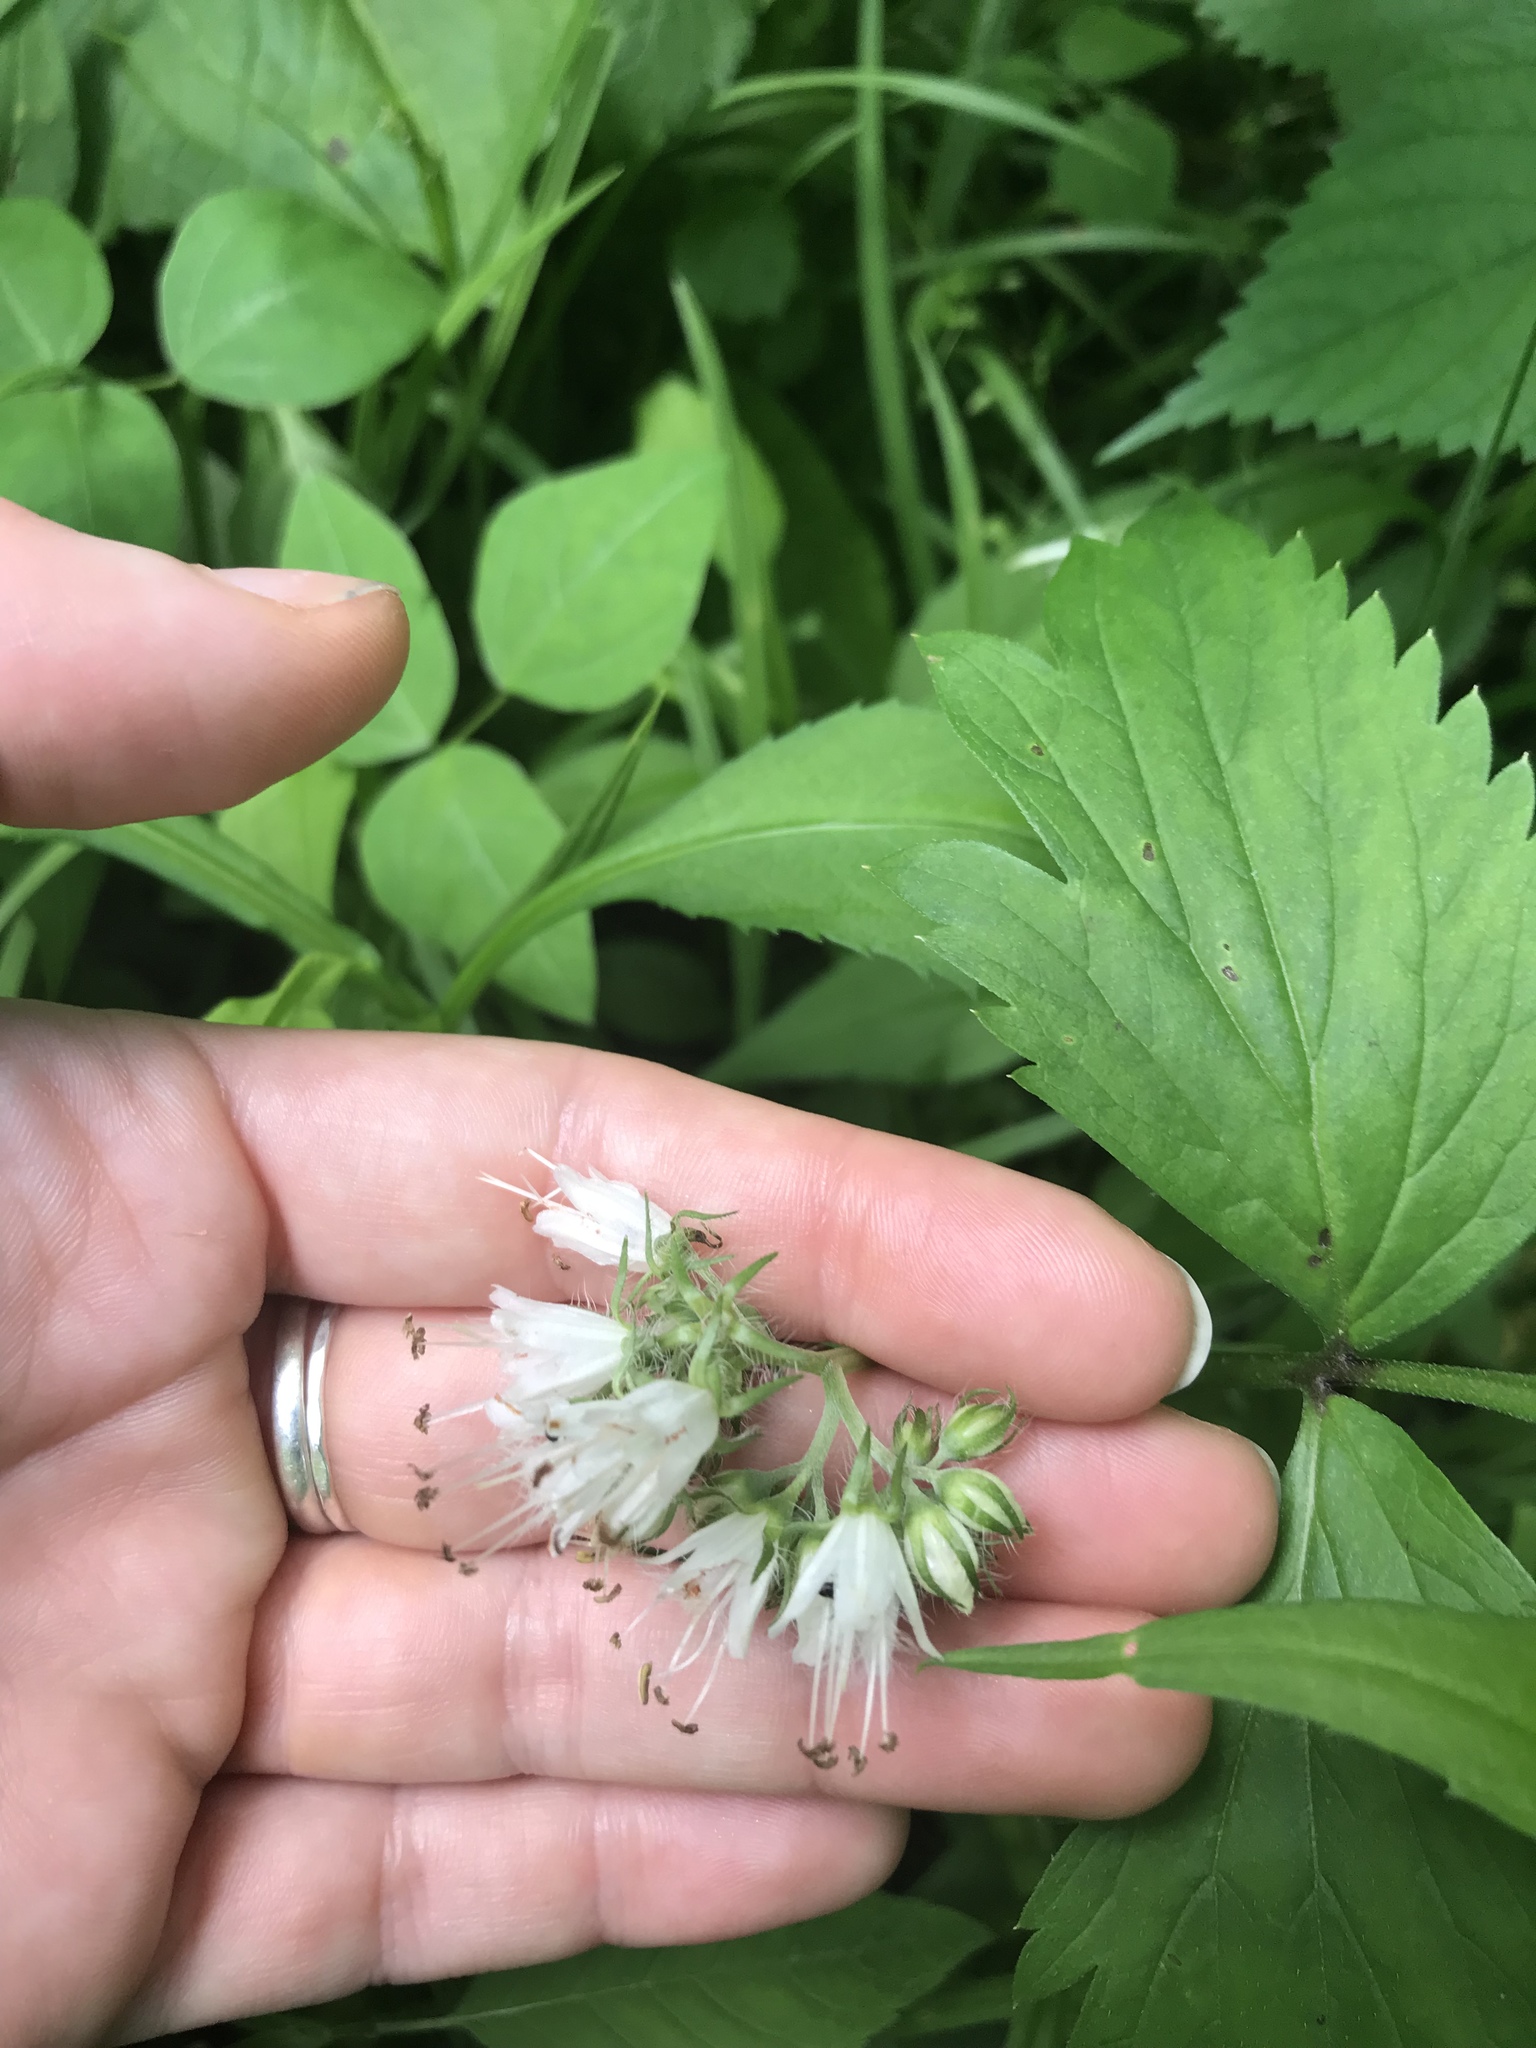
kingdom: Plantae
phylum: Tracheophyta
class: Magnoliopsida
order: Boraginales
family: Hydrophyllaceae
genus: Hydrophyllum
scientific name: Hydrophyllum virginianum
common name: Virginia waterleaf
